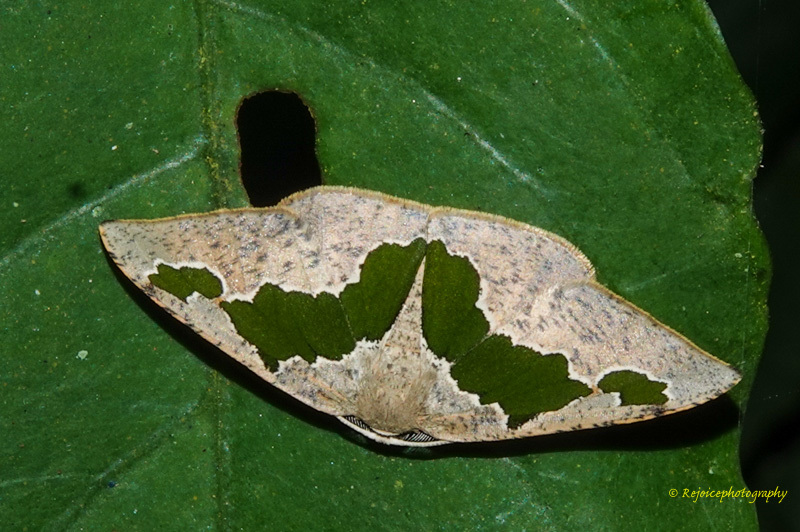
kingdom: Animalia
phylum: Arthropoda
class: Insecta
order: Lepidoptera
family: Geometridae
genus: Celenna
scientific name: Celenna festivaria
